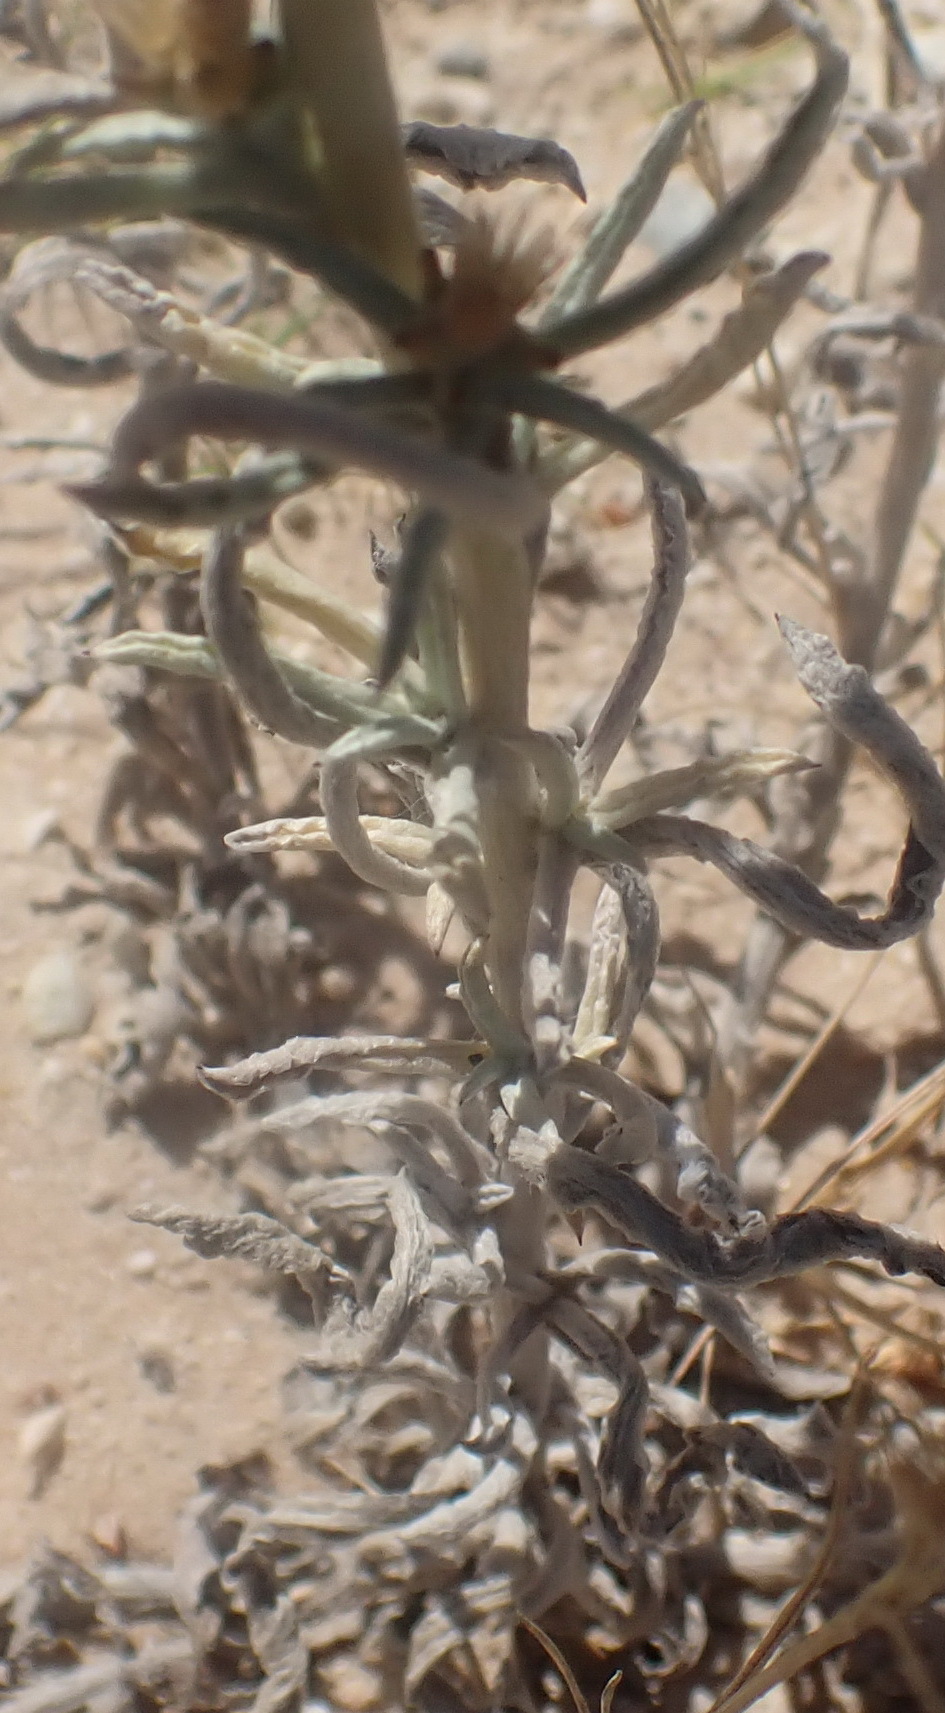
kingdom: Plantae
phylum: Tracheophyta
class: Magnoliopsida
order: Asterales
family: Asteraceae
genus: Gamochaeta
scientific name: Gamochaeta americana
